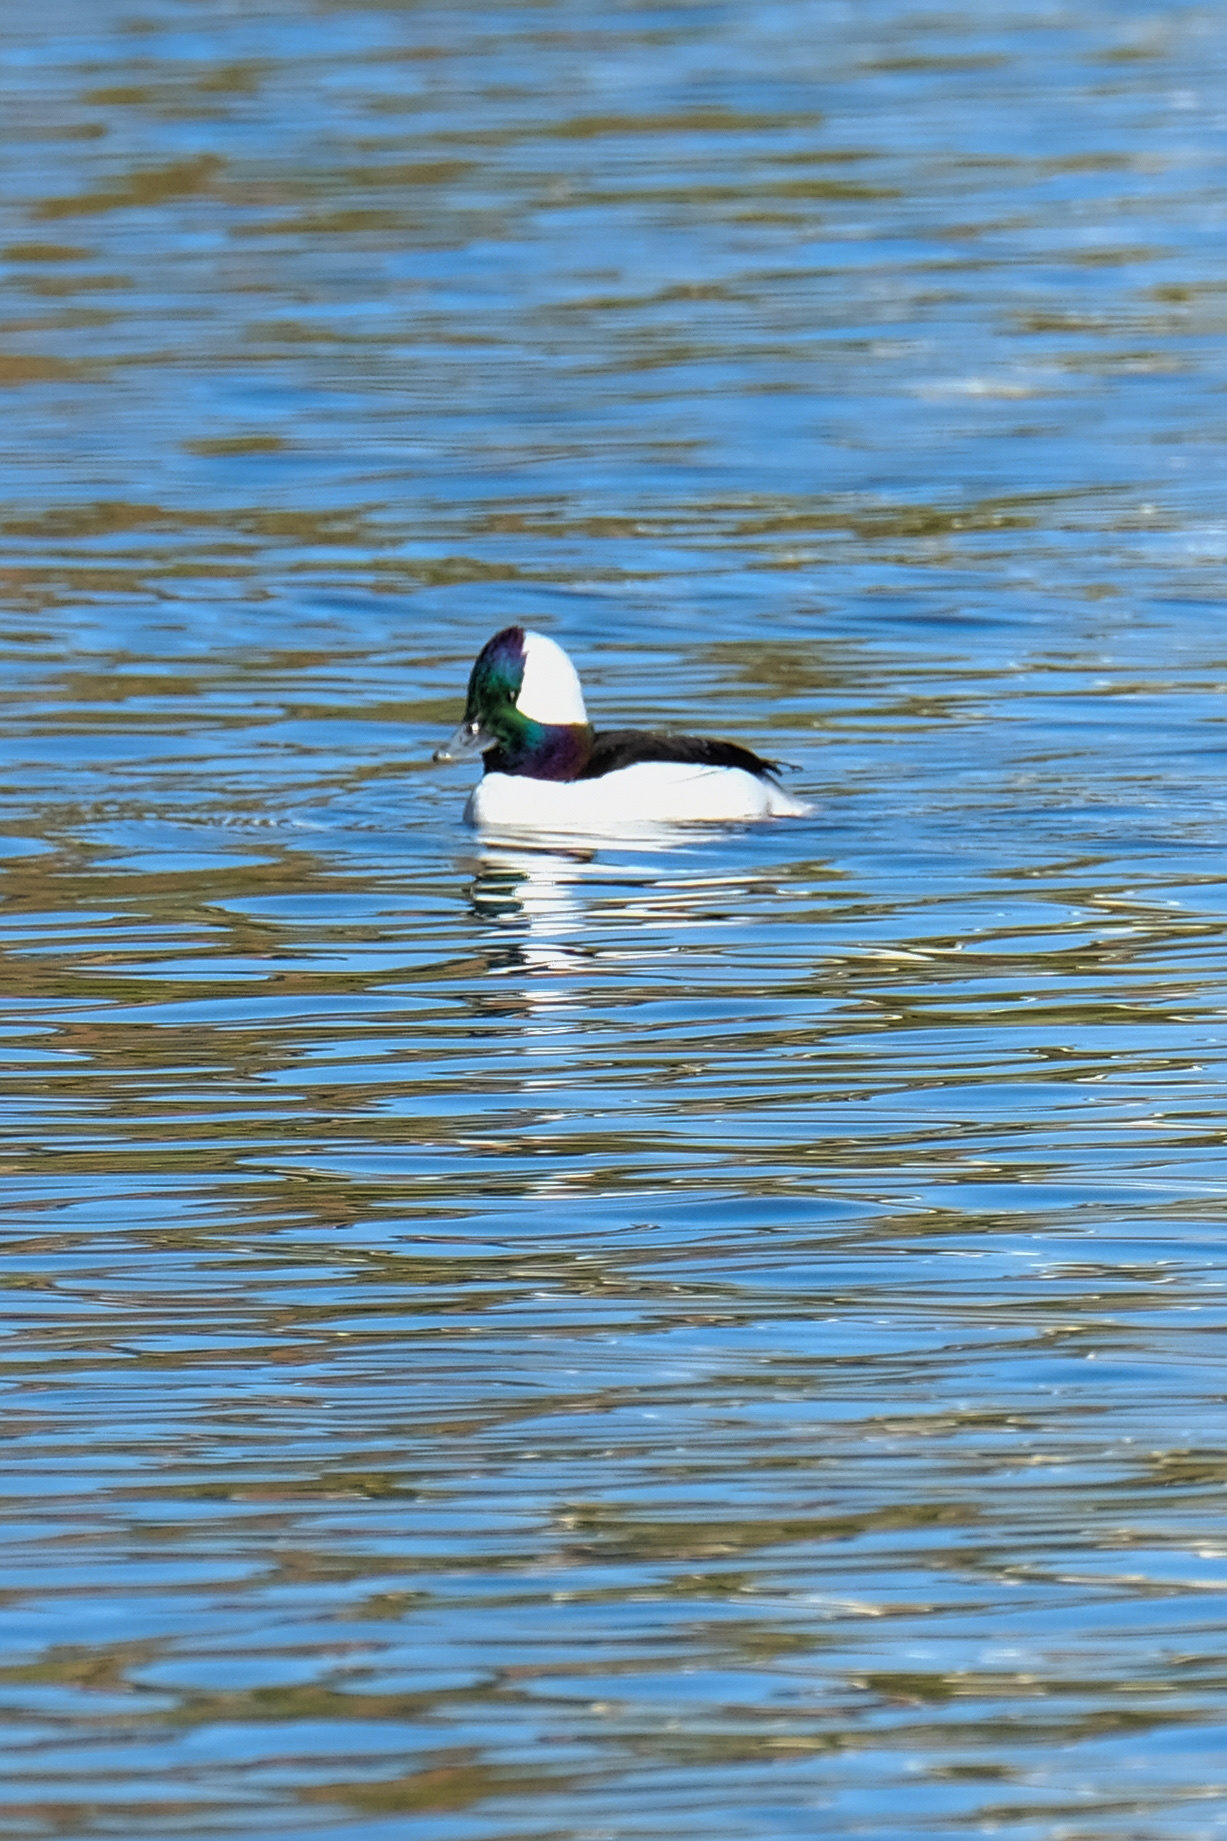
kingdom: Animalia
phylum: Chordata
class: Aves
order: Anseriformes
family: Anatidae
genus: Bucephala
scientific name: Bucephala albeola
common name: Bufflehead
